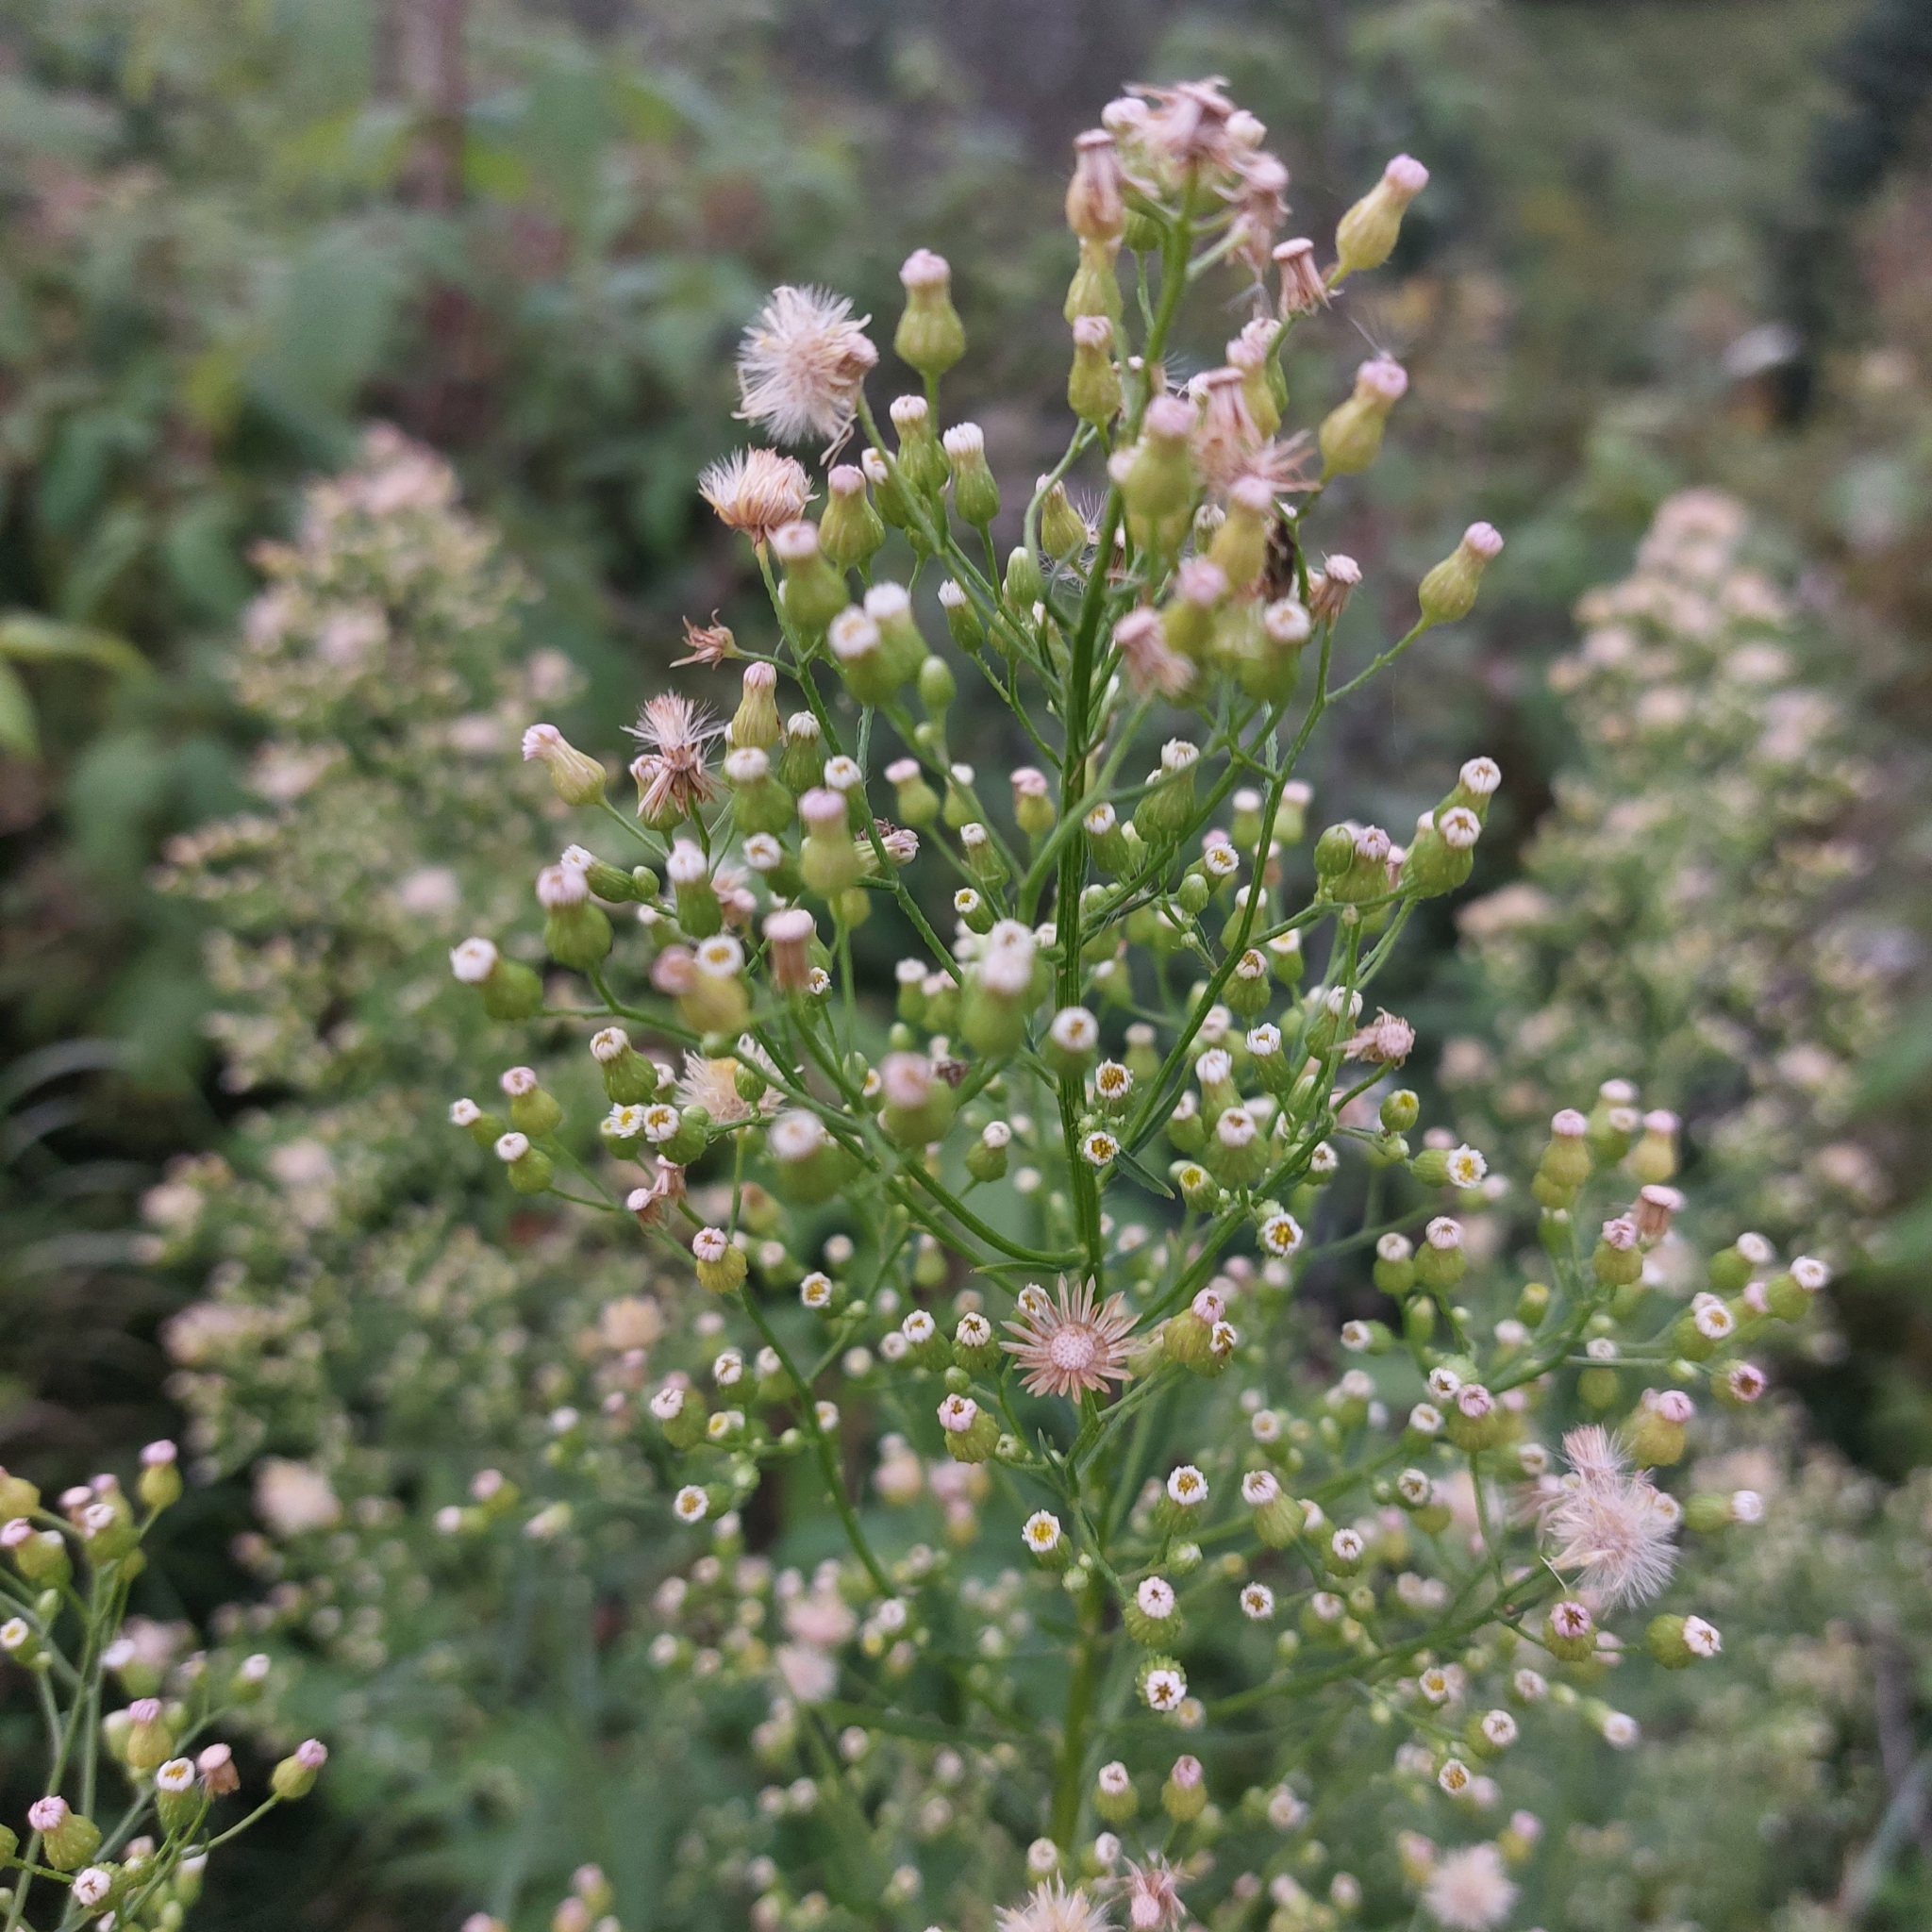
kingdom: Plantae
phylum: Tracheophyta
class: Magnoliopsida
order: Asterales
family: Asteraceae
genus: Erigeron
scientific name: Erigeron canadensis
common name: Canadian fleabane
